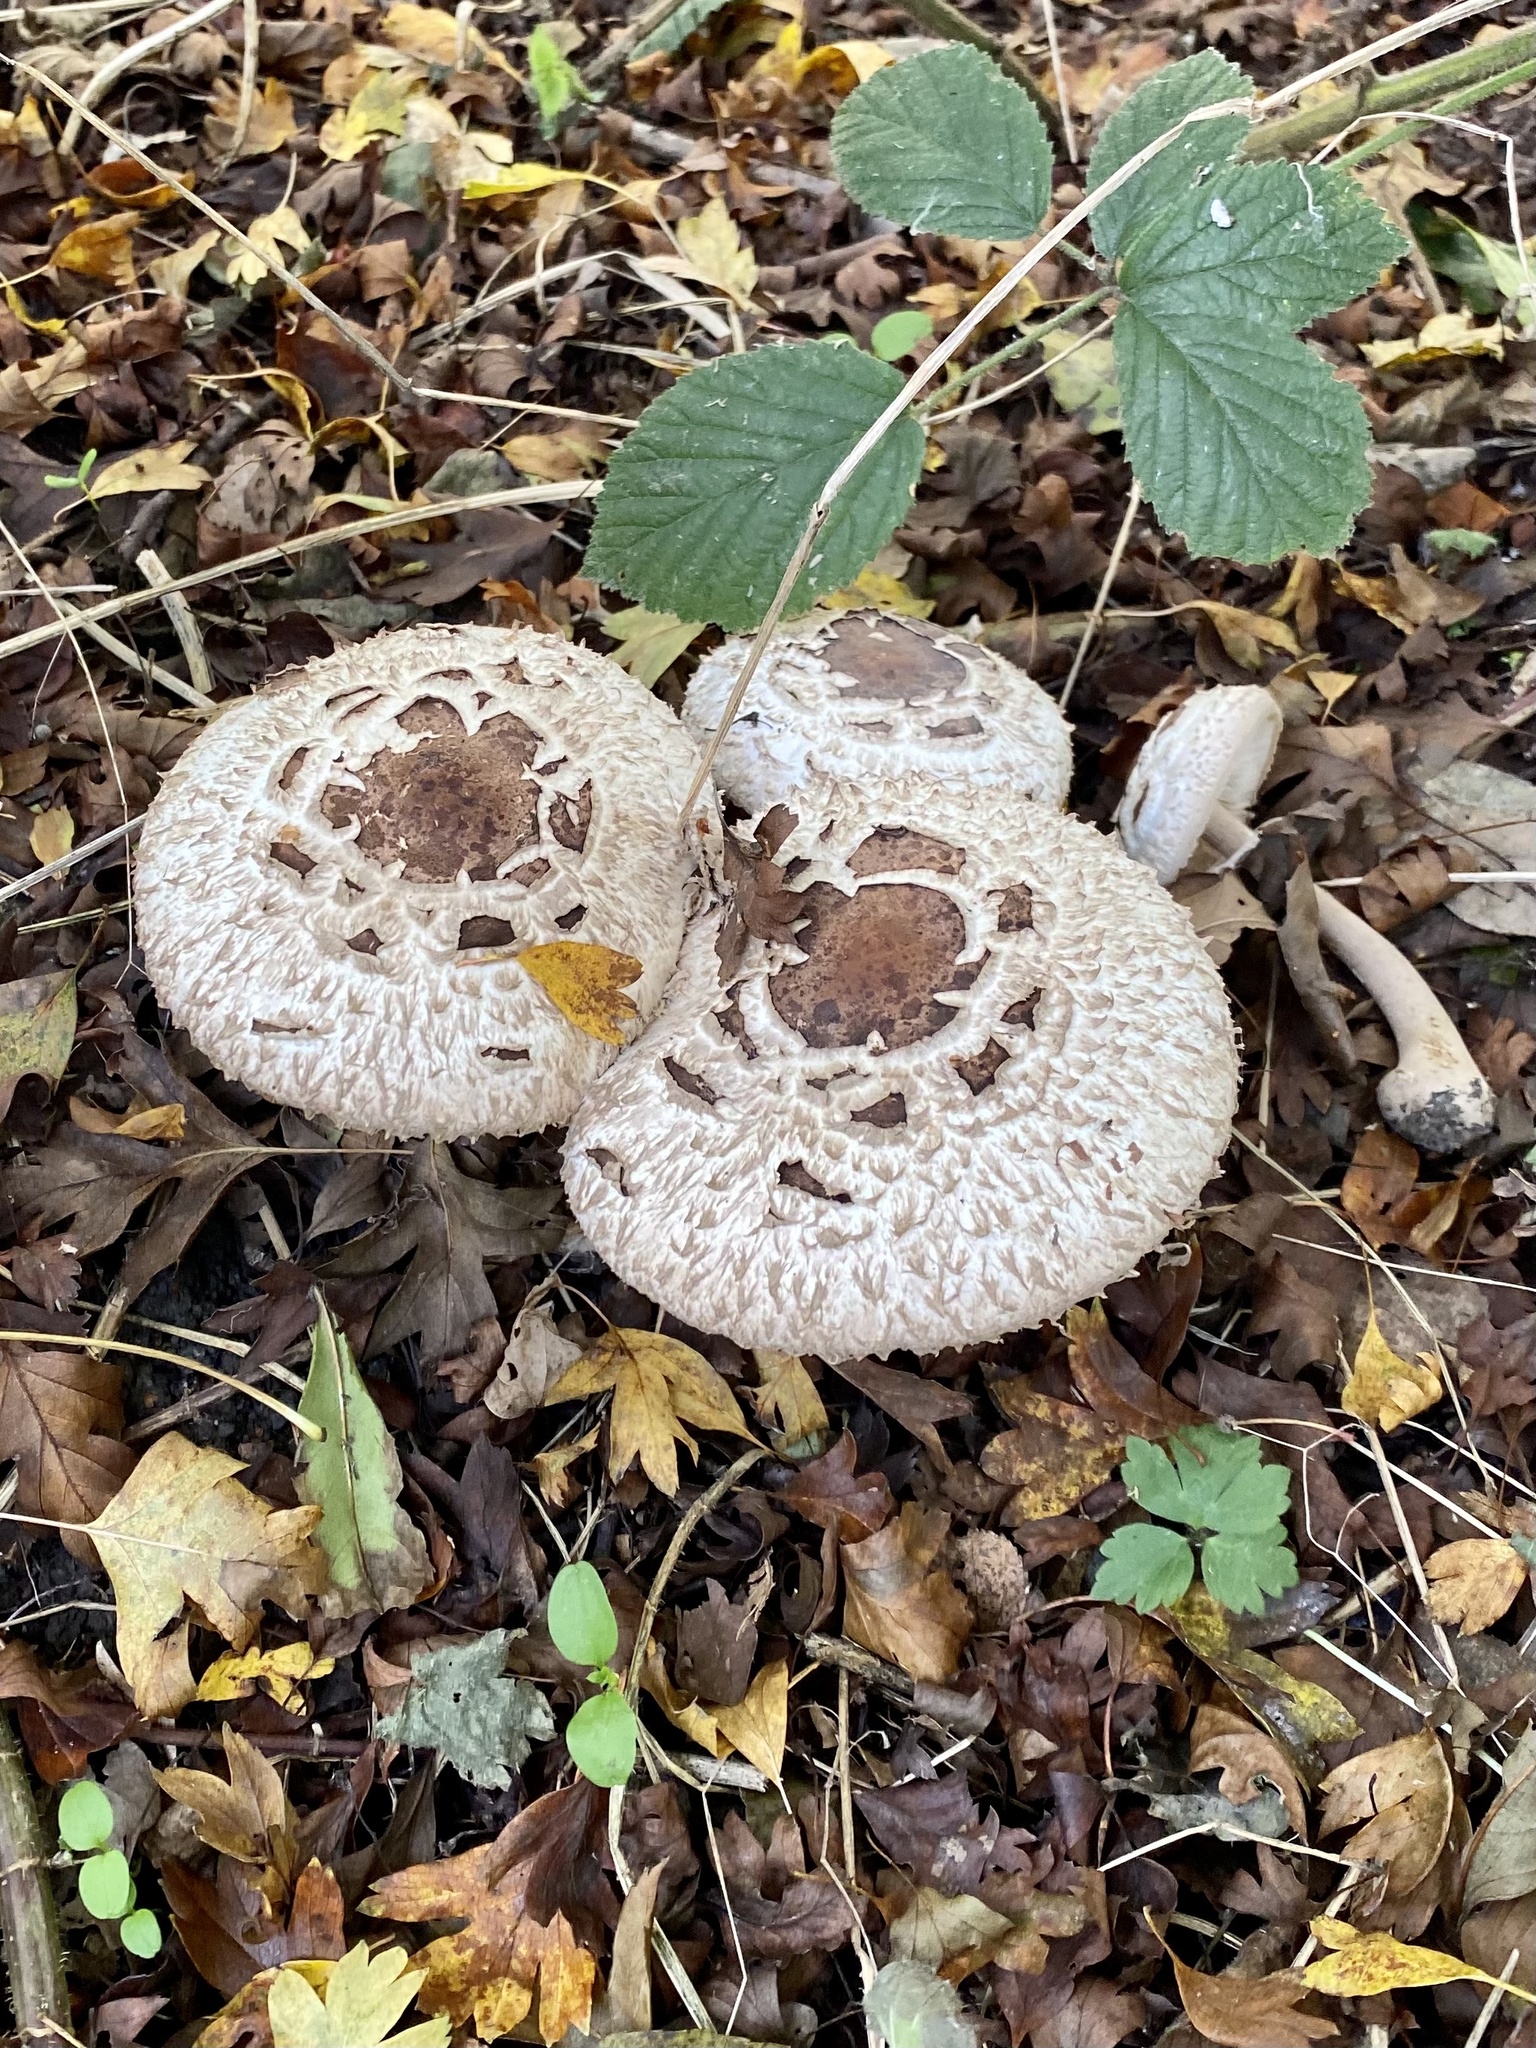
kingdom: Fungi
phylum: Basidiomycota
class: Agaricomycetes
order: Agaricales
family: Agaricaceae
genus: Chlorophyllum
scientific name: Chlorophyllum rhacodes
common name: Shaggy parasol
